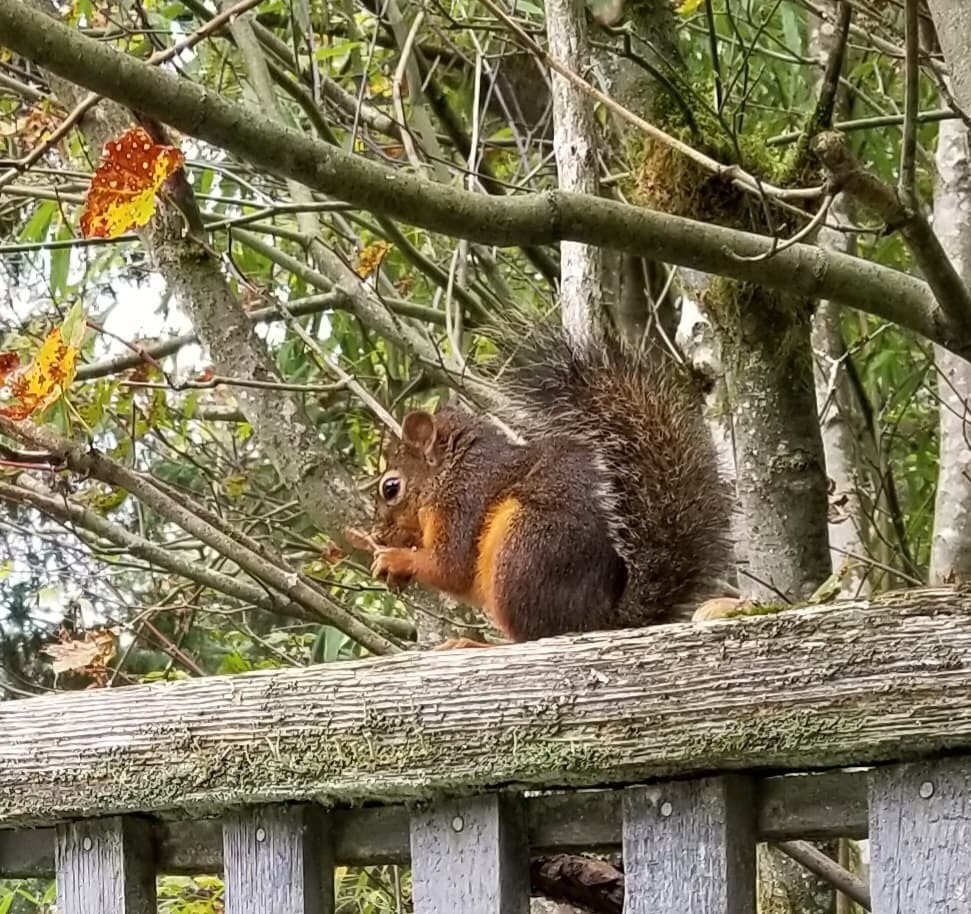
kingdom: Animalia
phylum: Chordata
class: Mammalia
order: Rodentia
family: Sciuridae
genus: Tamiasciurus
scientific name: Tamiasciurus douglasii
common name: Douglas's squirrel
